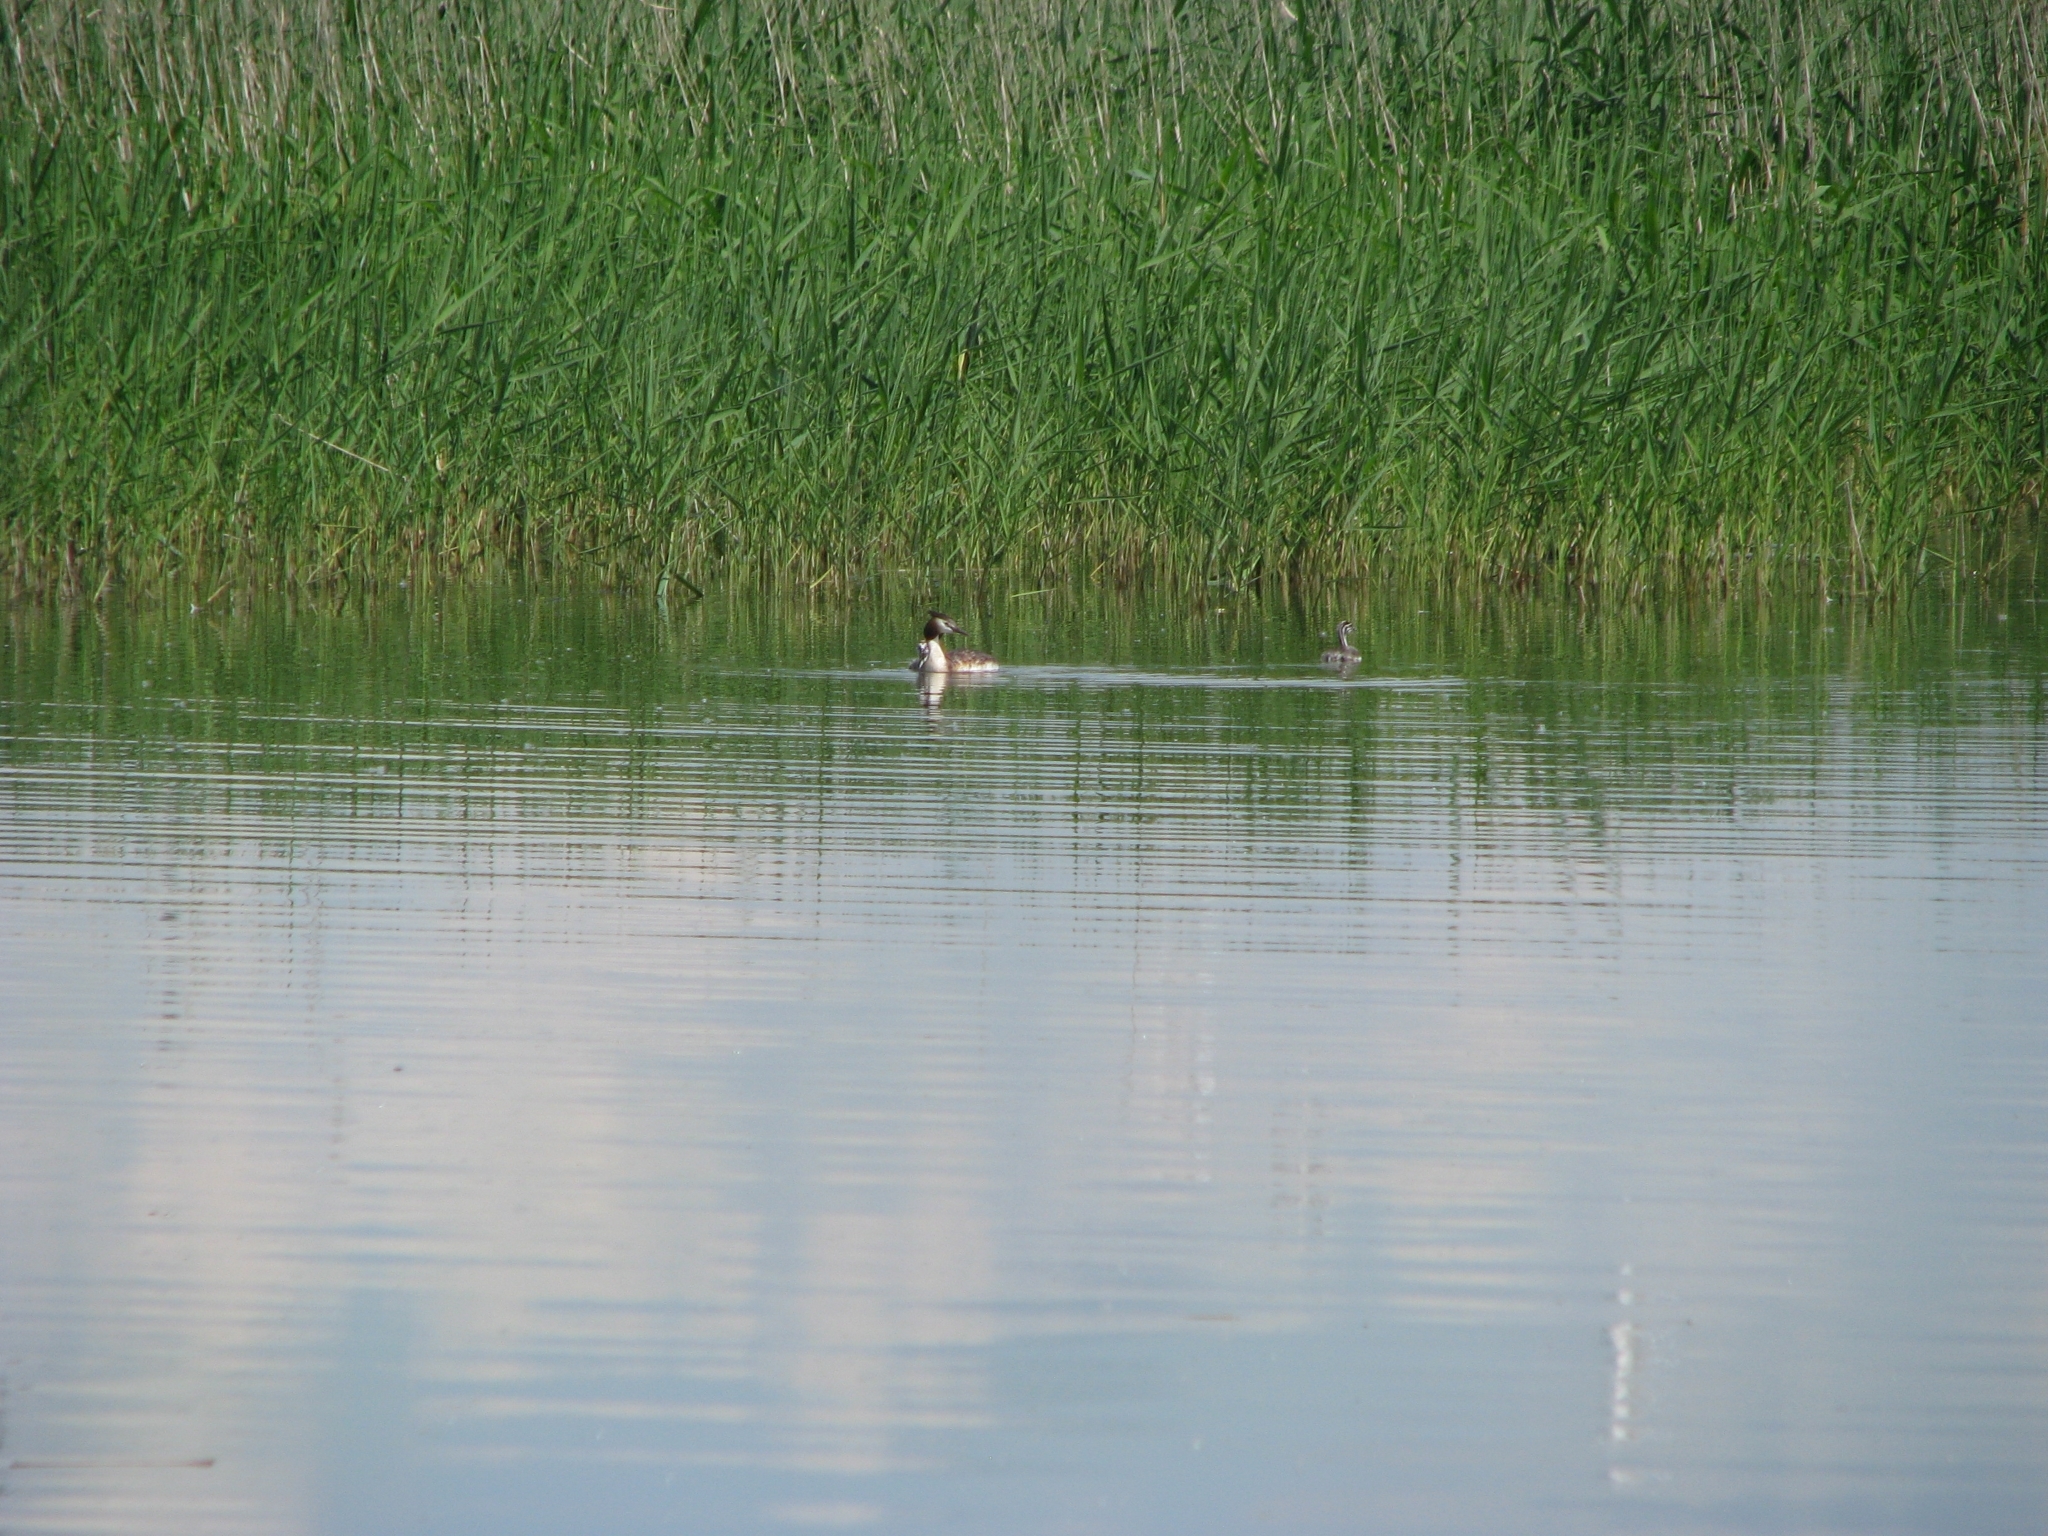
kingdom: Animalia
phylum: Chordata
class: Aves
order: Podicipediformes
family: Podicipedidae
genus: Podiceps
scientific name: Podiceps cristatus
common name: Great crested grebe
